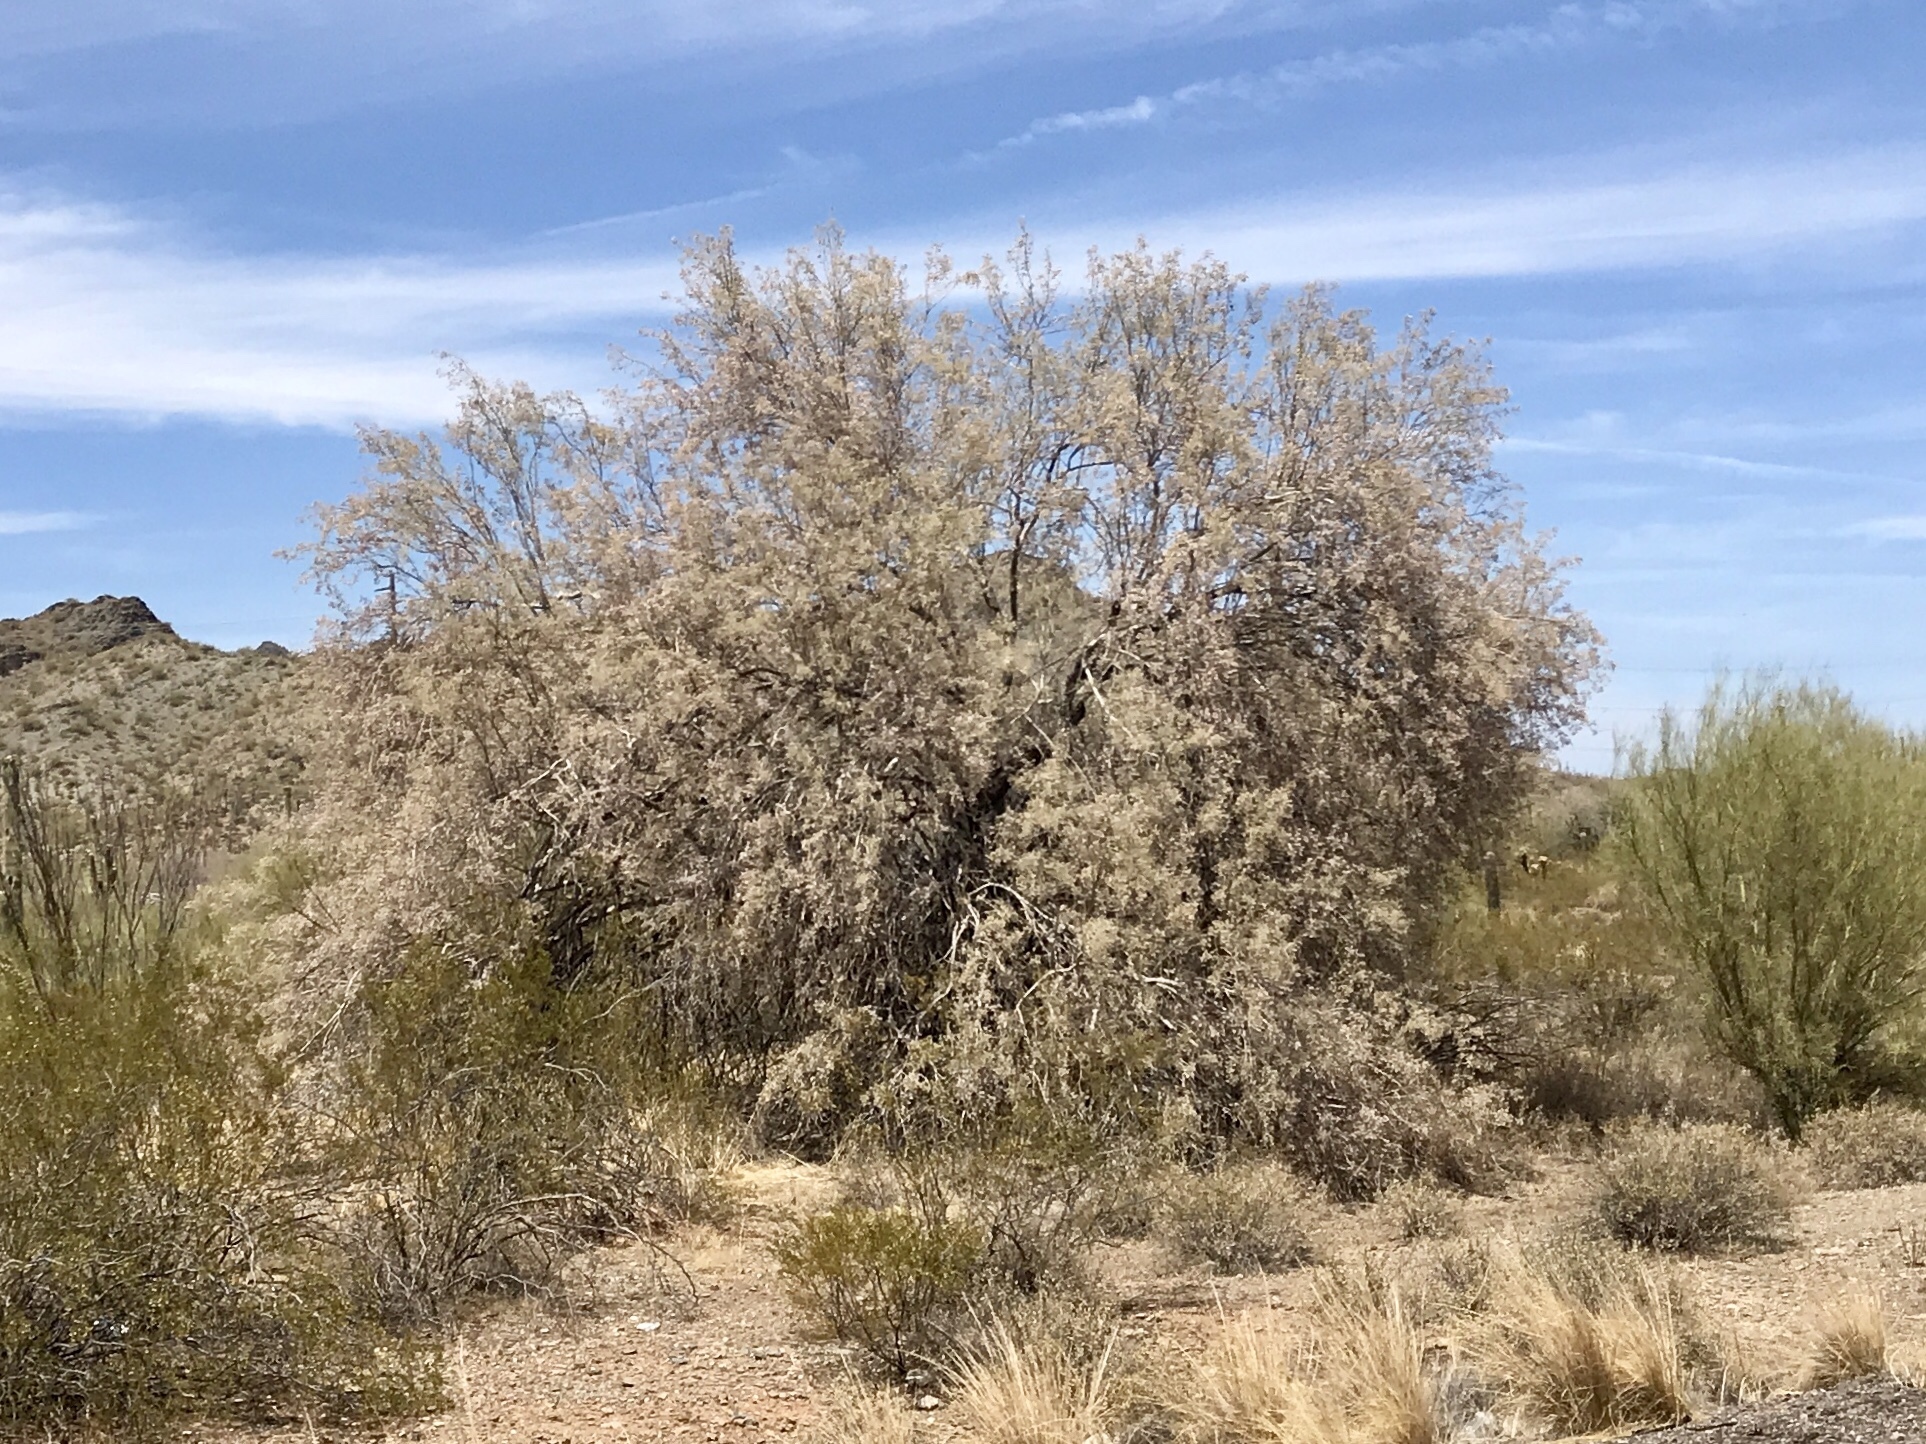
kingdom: Plantae
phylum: Tracheophyta
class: Magnoliopsida
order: Fabales
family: Fabaceae
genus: Olneya
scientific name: Olneya tesota
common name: Desert ironwood
